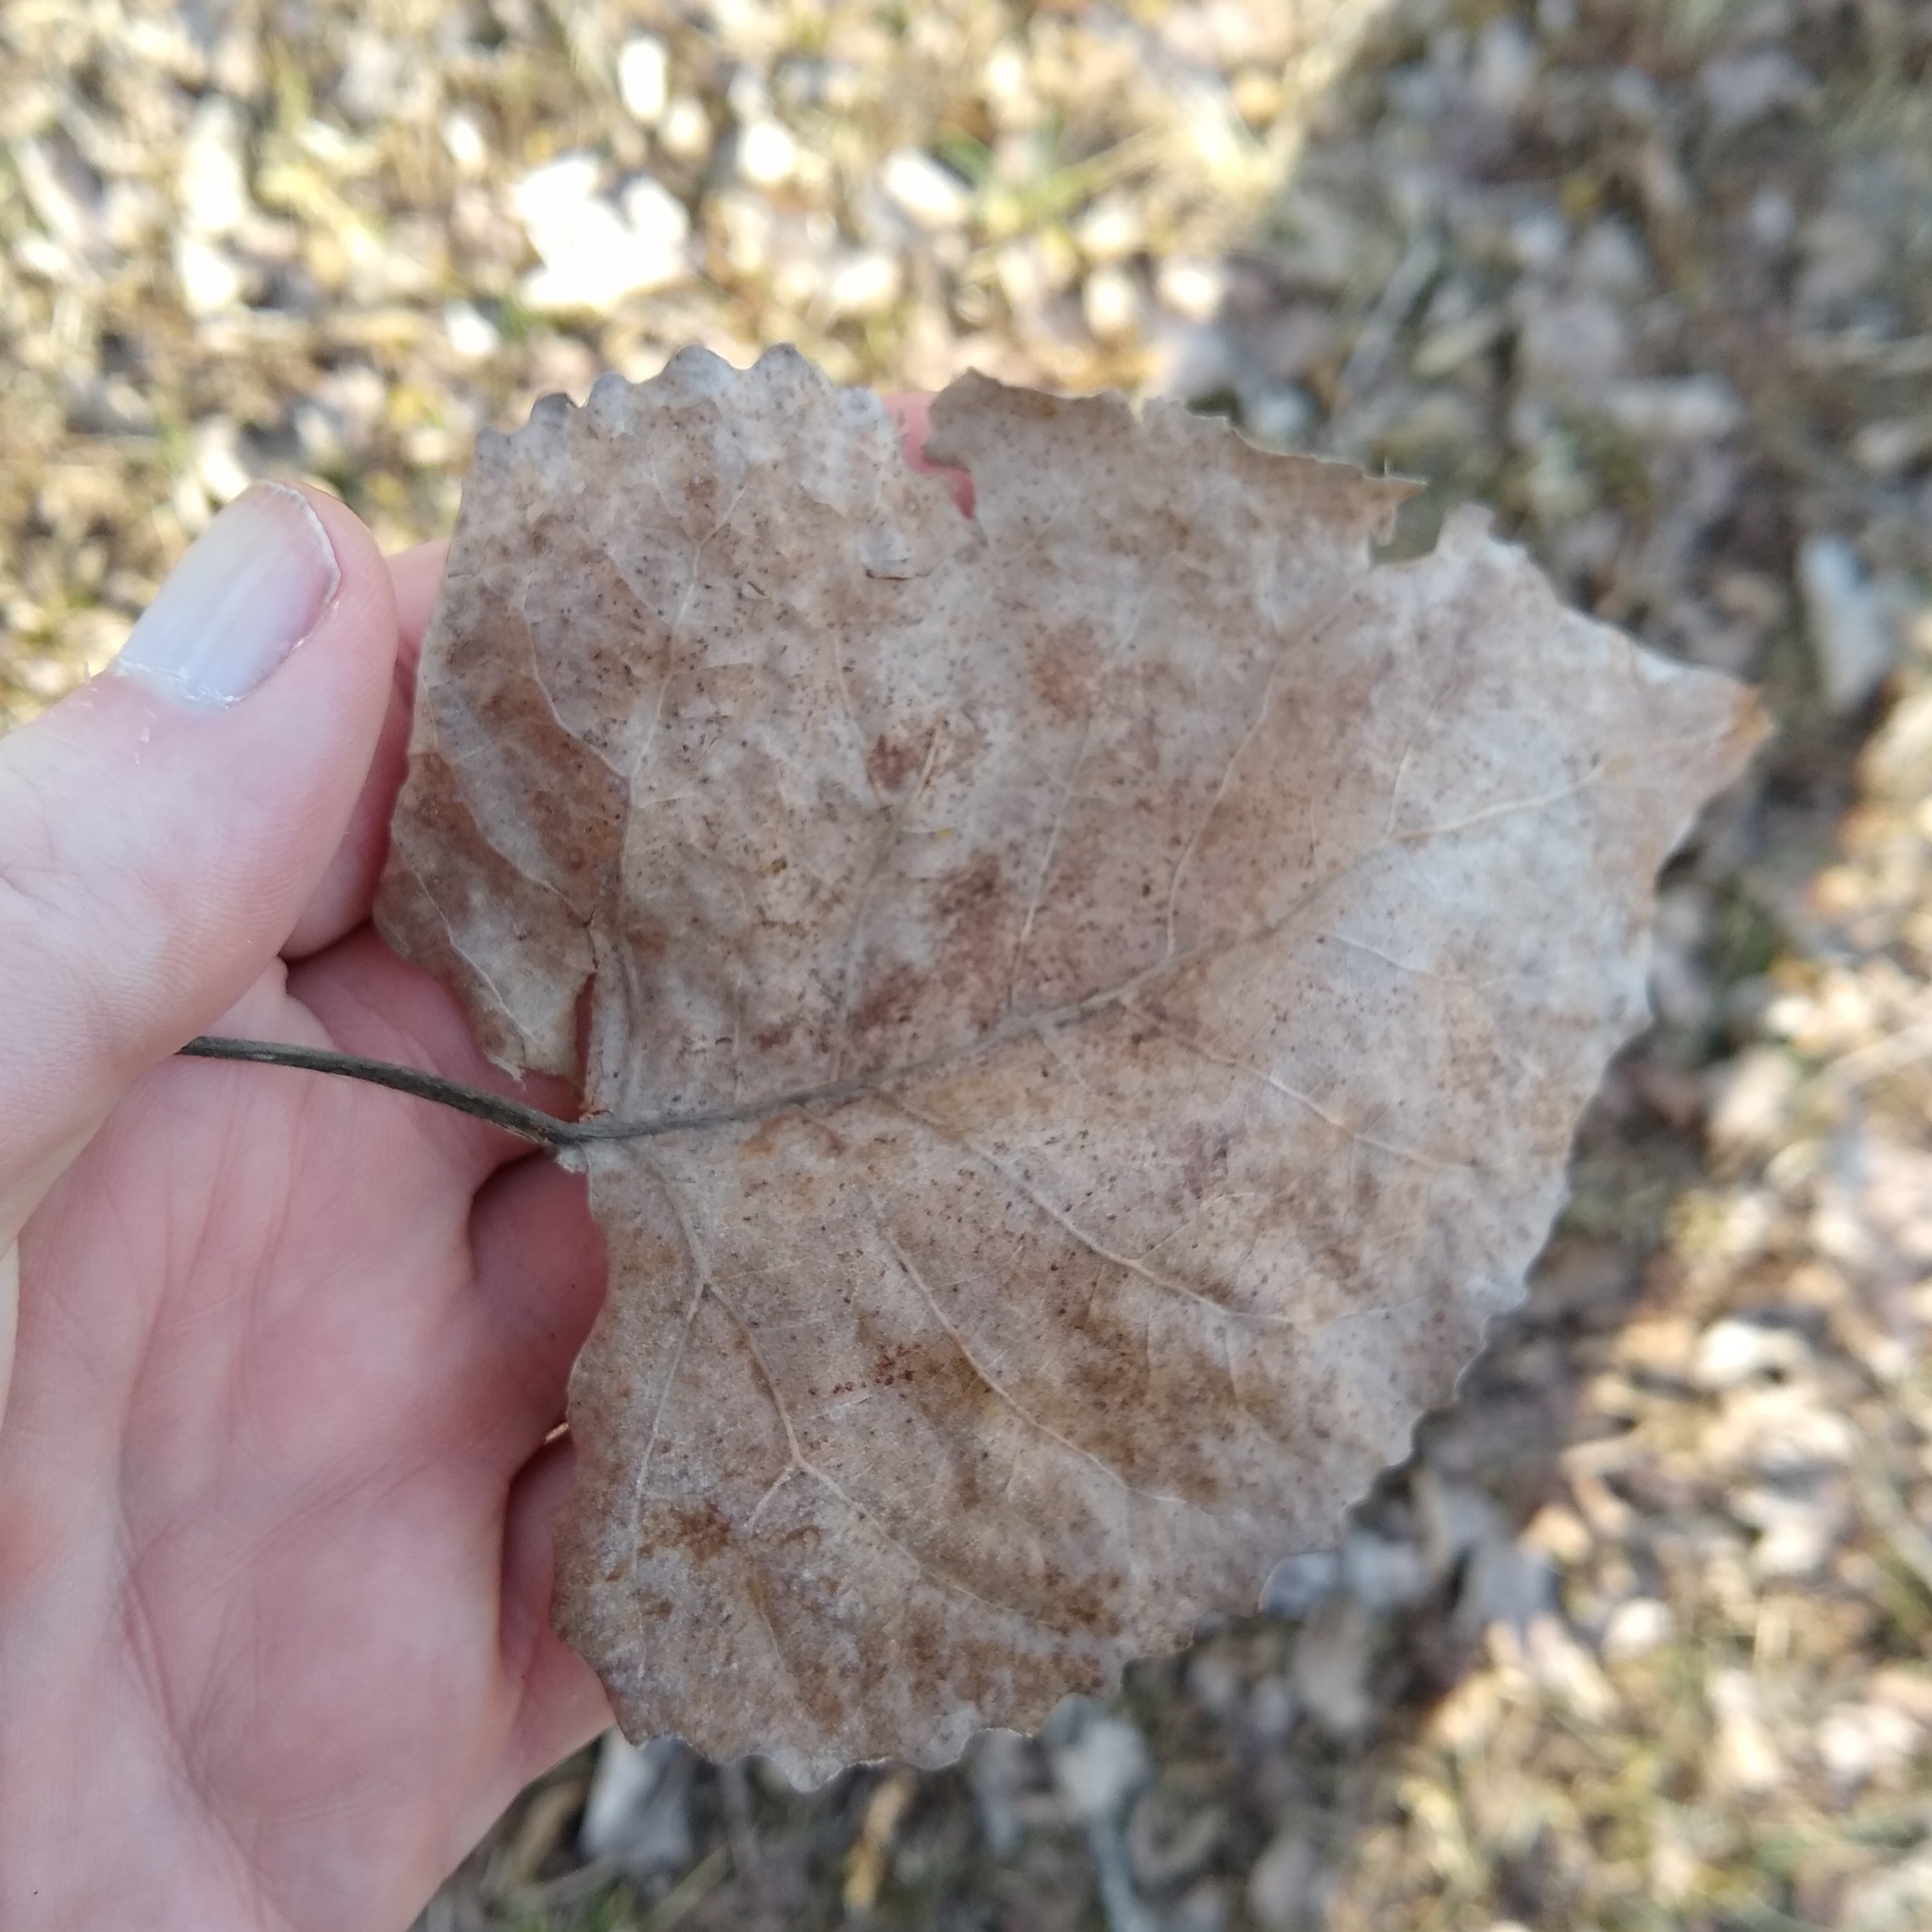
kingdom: Plantae
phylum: Tracheophyta
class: Magnoliopsida
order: Malpighiales
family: Salicaceae
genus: Populus
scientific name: Populus deltoides
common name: Eastern cottonwood
